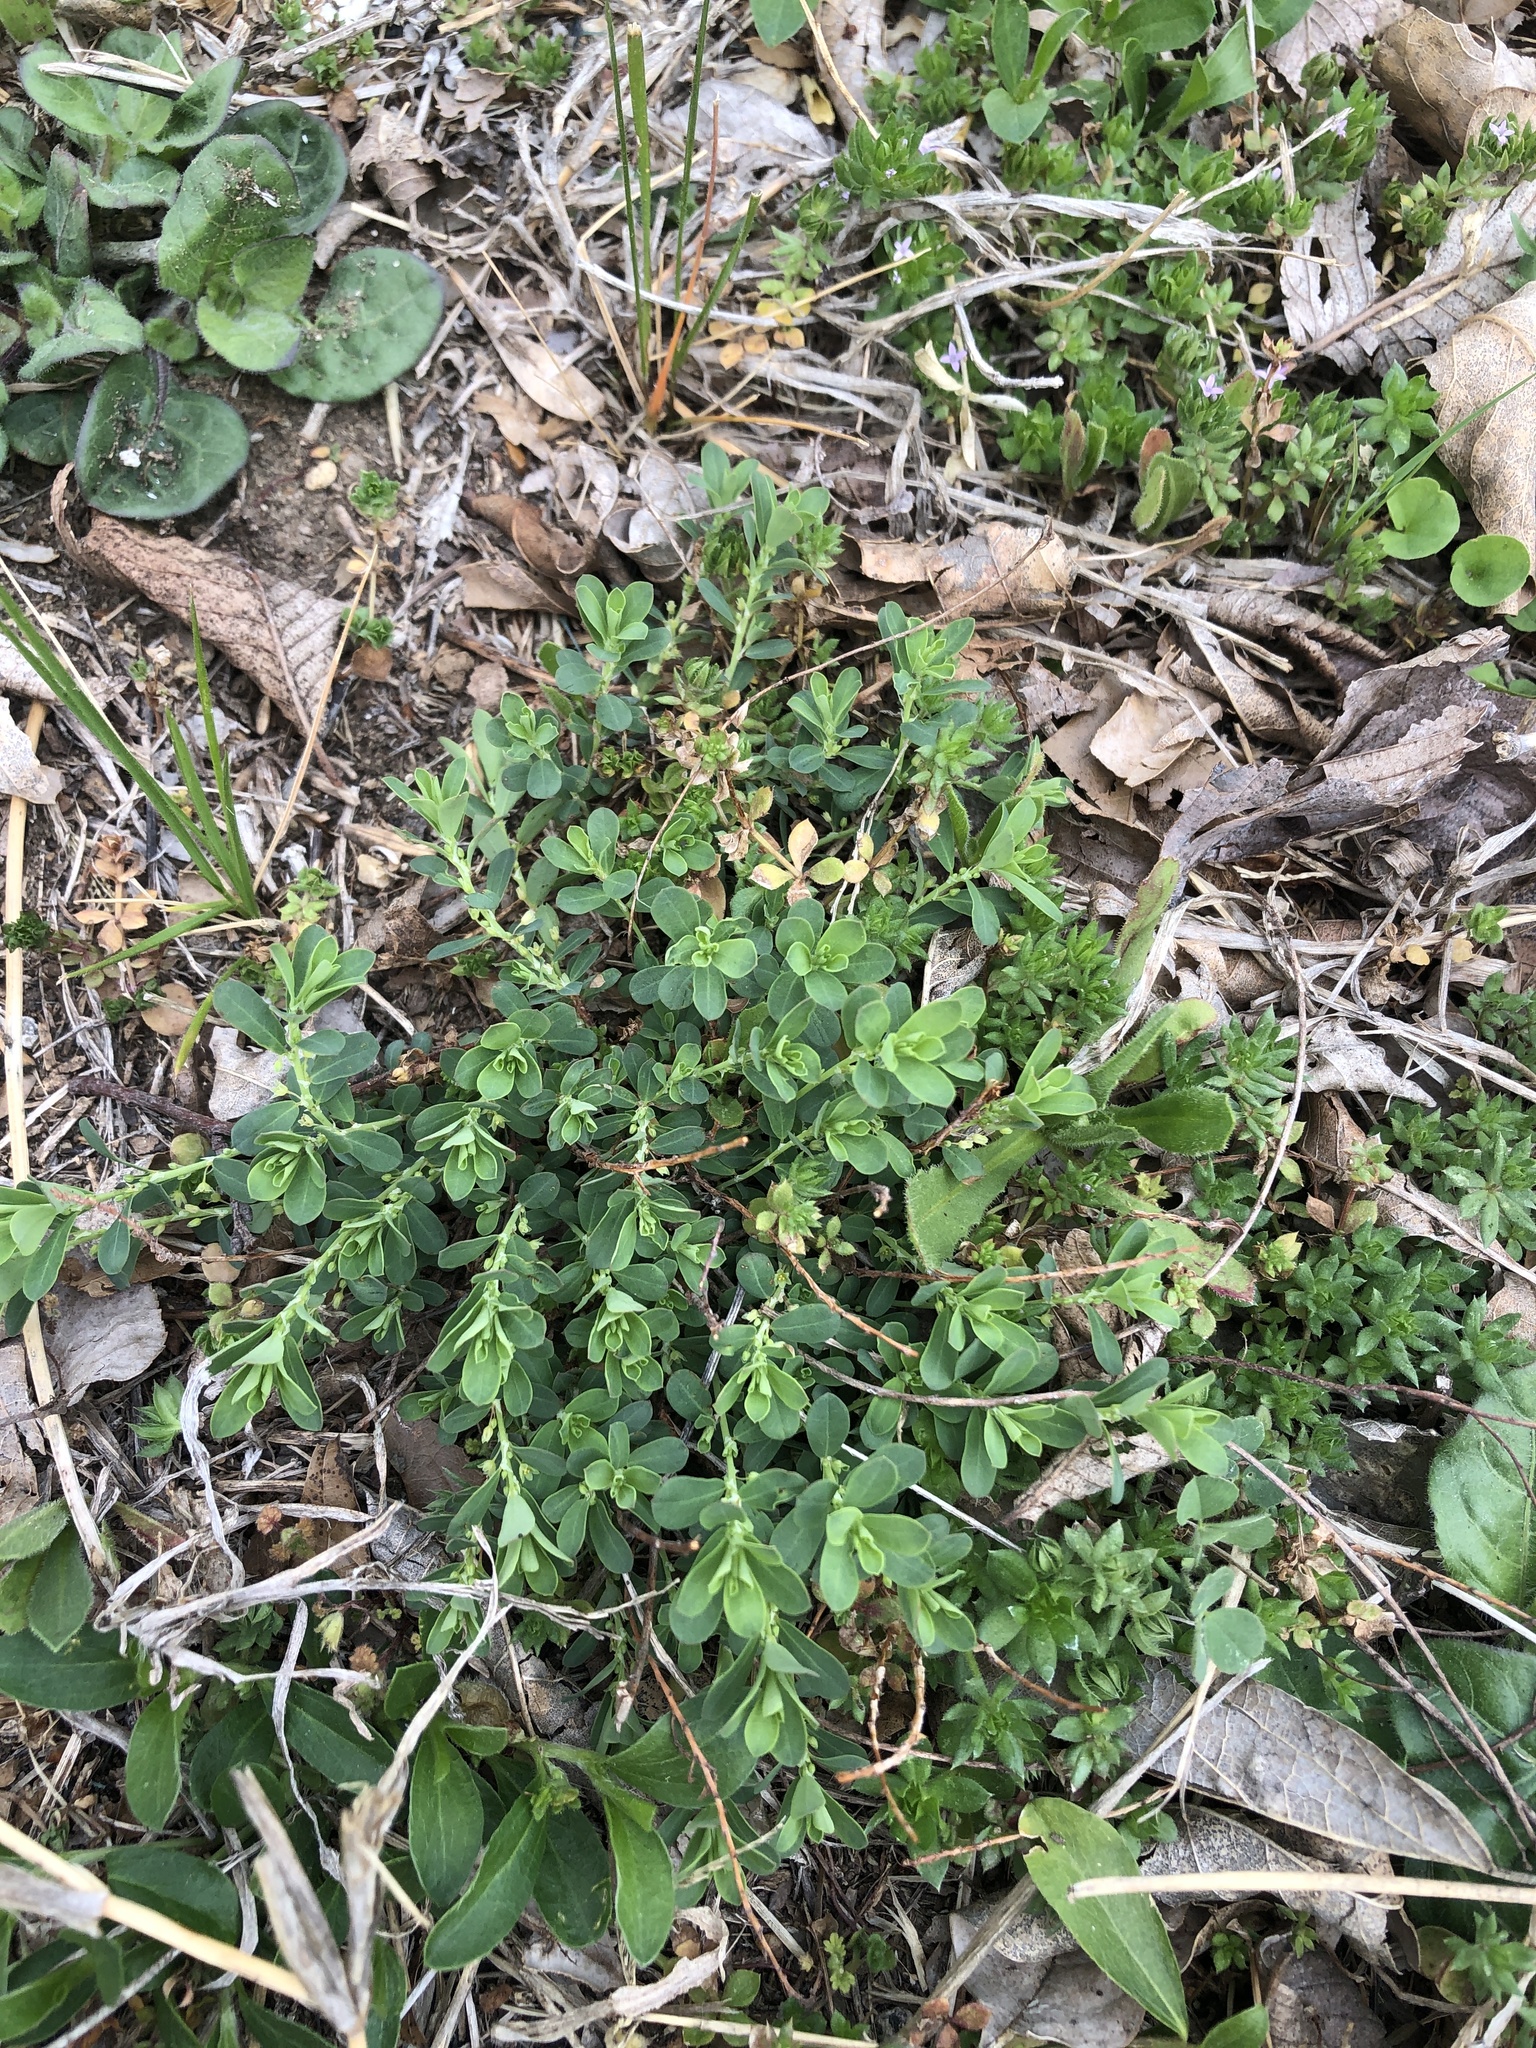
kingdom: Plantae
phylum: Tracheophyta
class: Magnoliopsida
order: Malpighiales
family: Phyllanthaceae
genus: Phyllanthus
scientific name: Phyllanthus polygonoides
